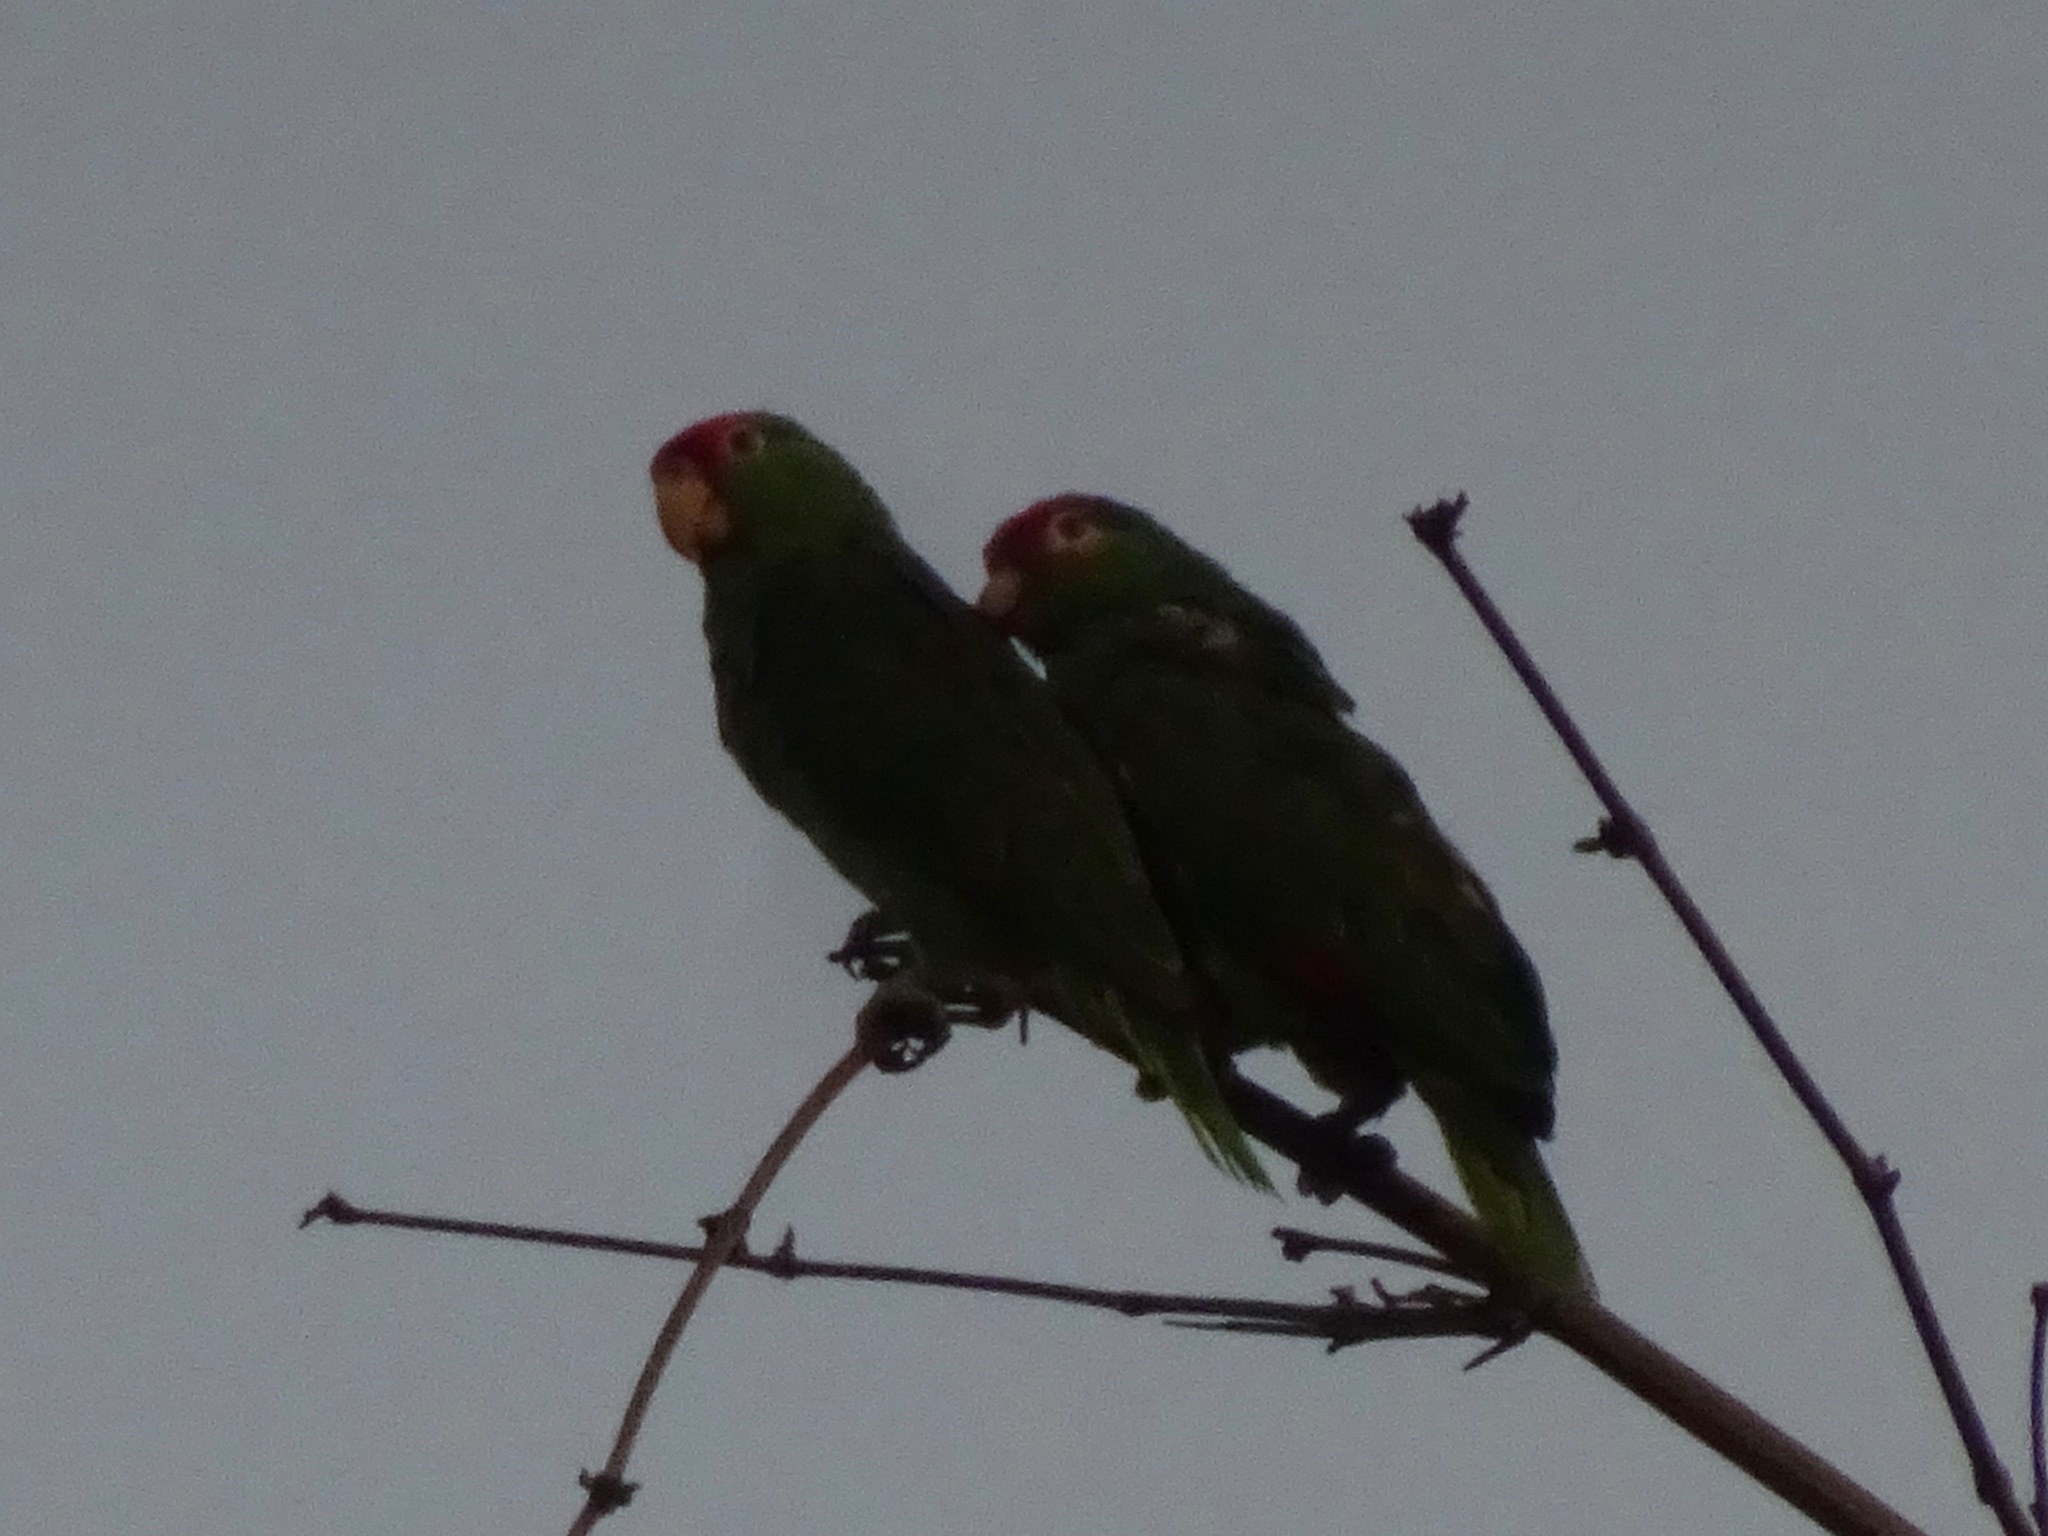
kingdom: Animalia
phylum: Chordata
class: Aves
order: Psittaciformes
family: Psittacidae
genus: Amazona
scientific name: Amazona viridigenalis
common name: Red-crowned amazon
